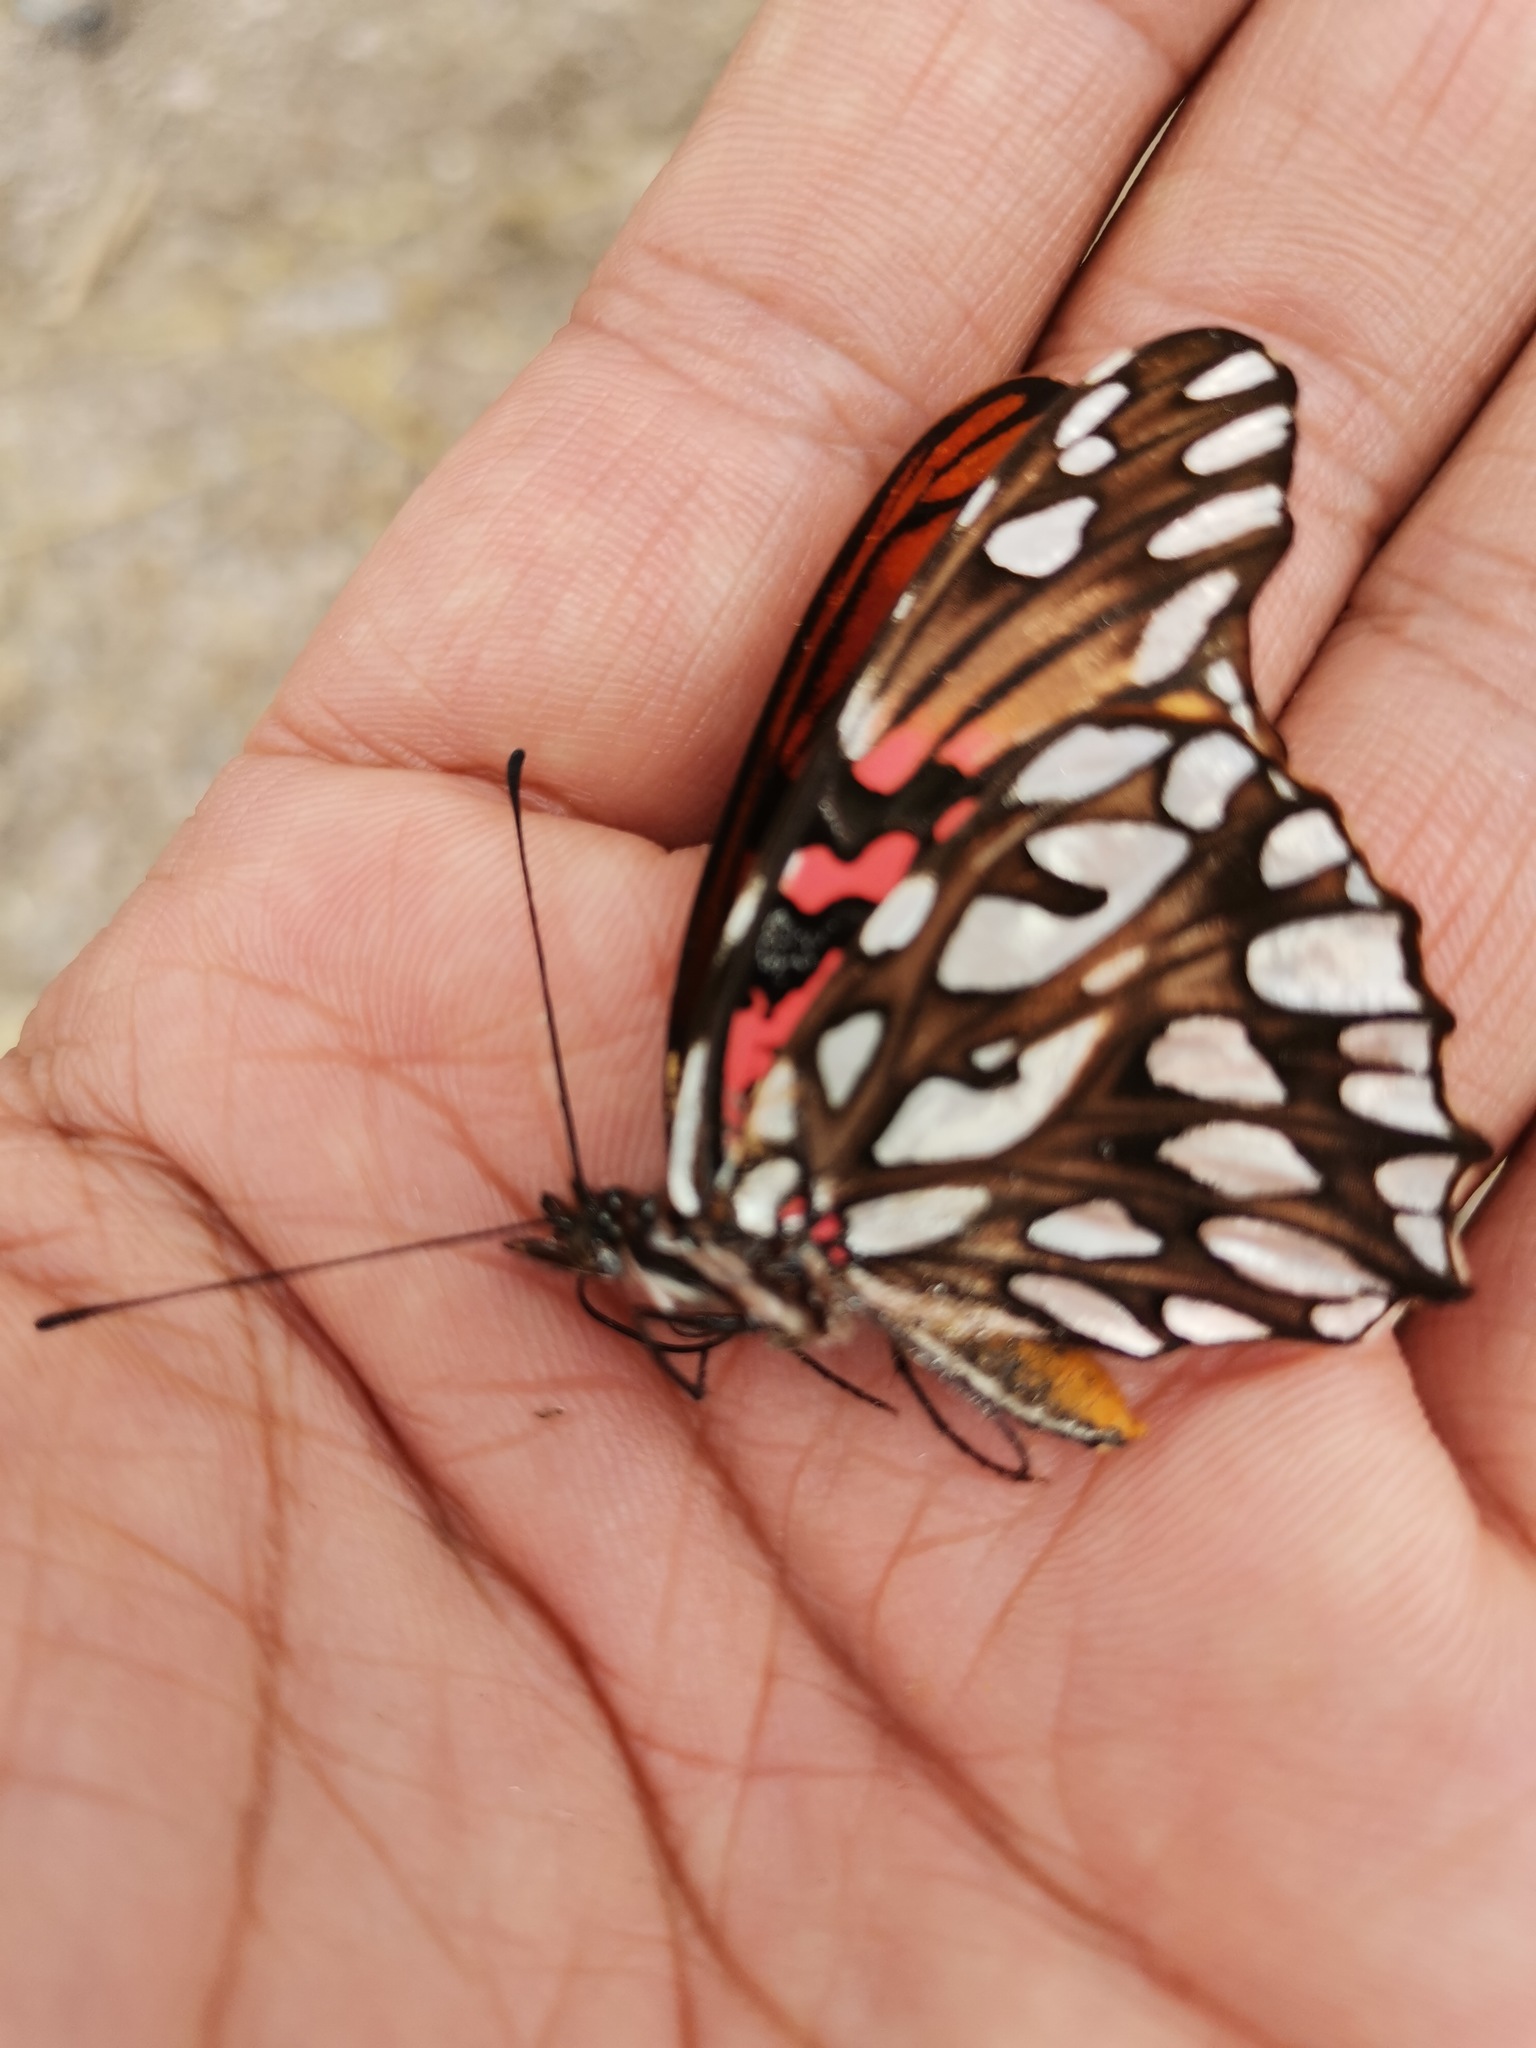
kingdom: Animalia
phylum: Arthropoda
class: Insecta
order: Lepidoptera
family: Nymphalidae
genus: Dione
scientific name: Dione moneta
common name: Mexican silverspot
